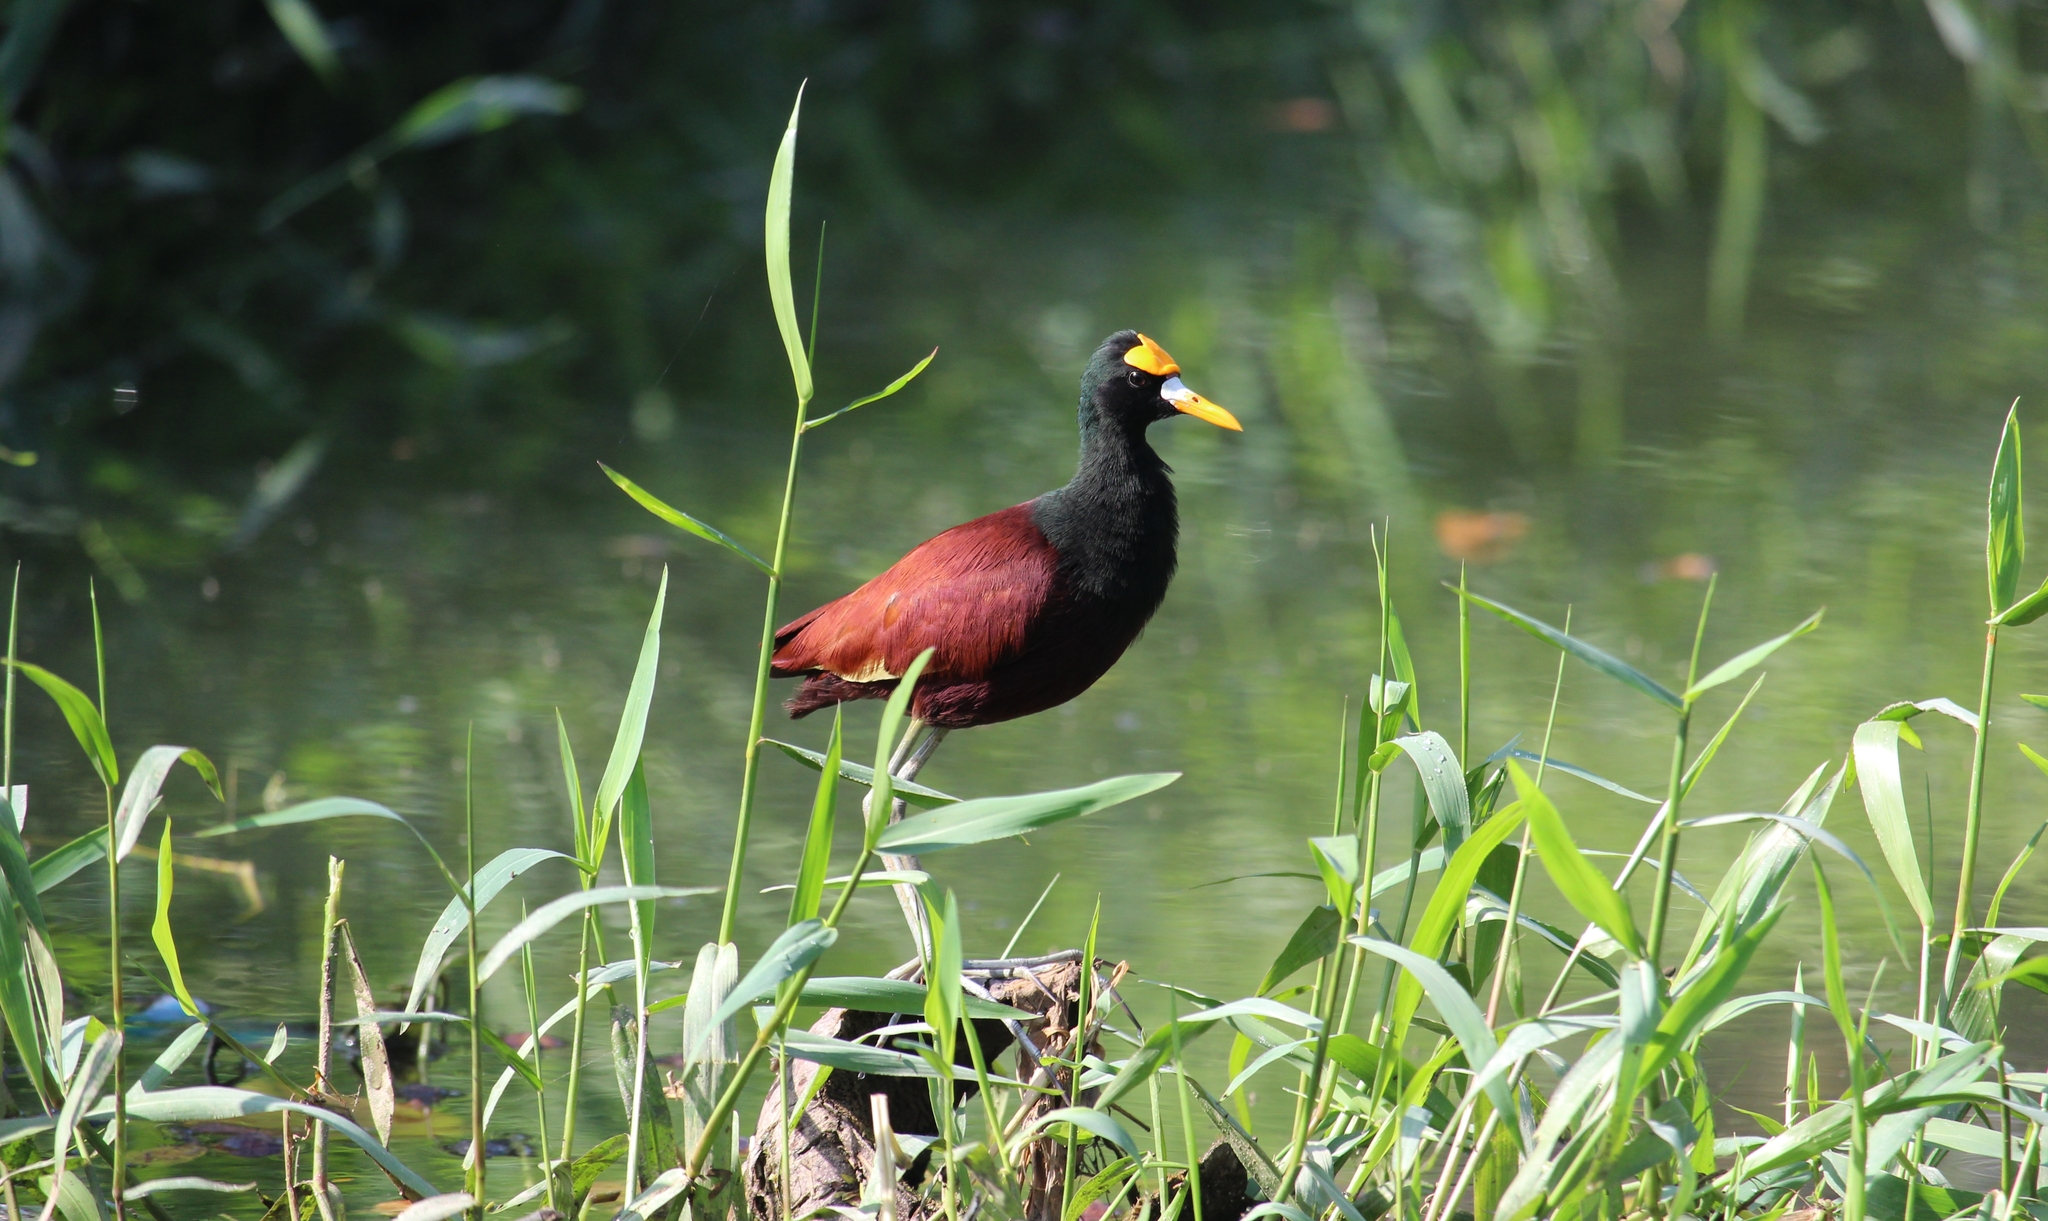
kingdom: Animalia
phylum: Chordata
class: Aves
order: Charadriiformes
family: Jacanidae
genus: Jacana
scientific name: Jacana spinosa
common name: Northern jacana
